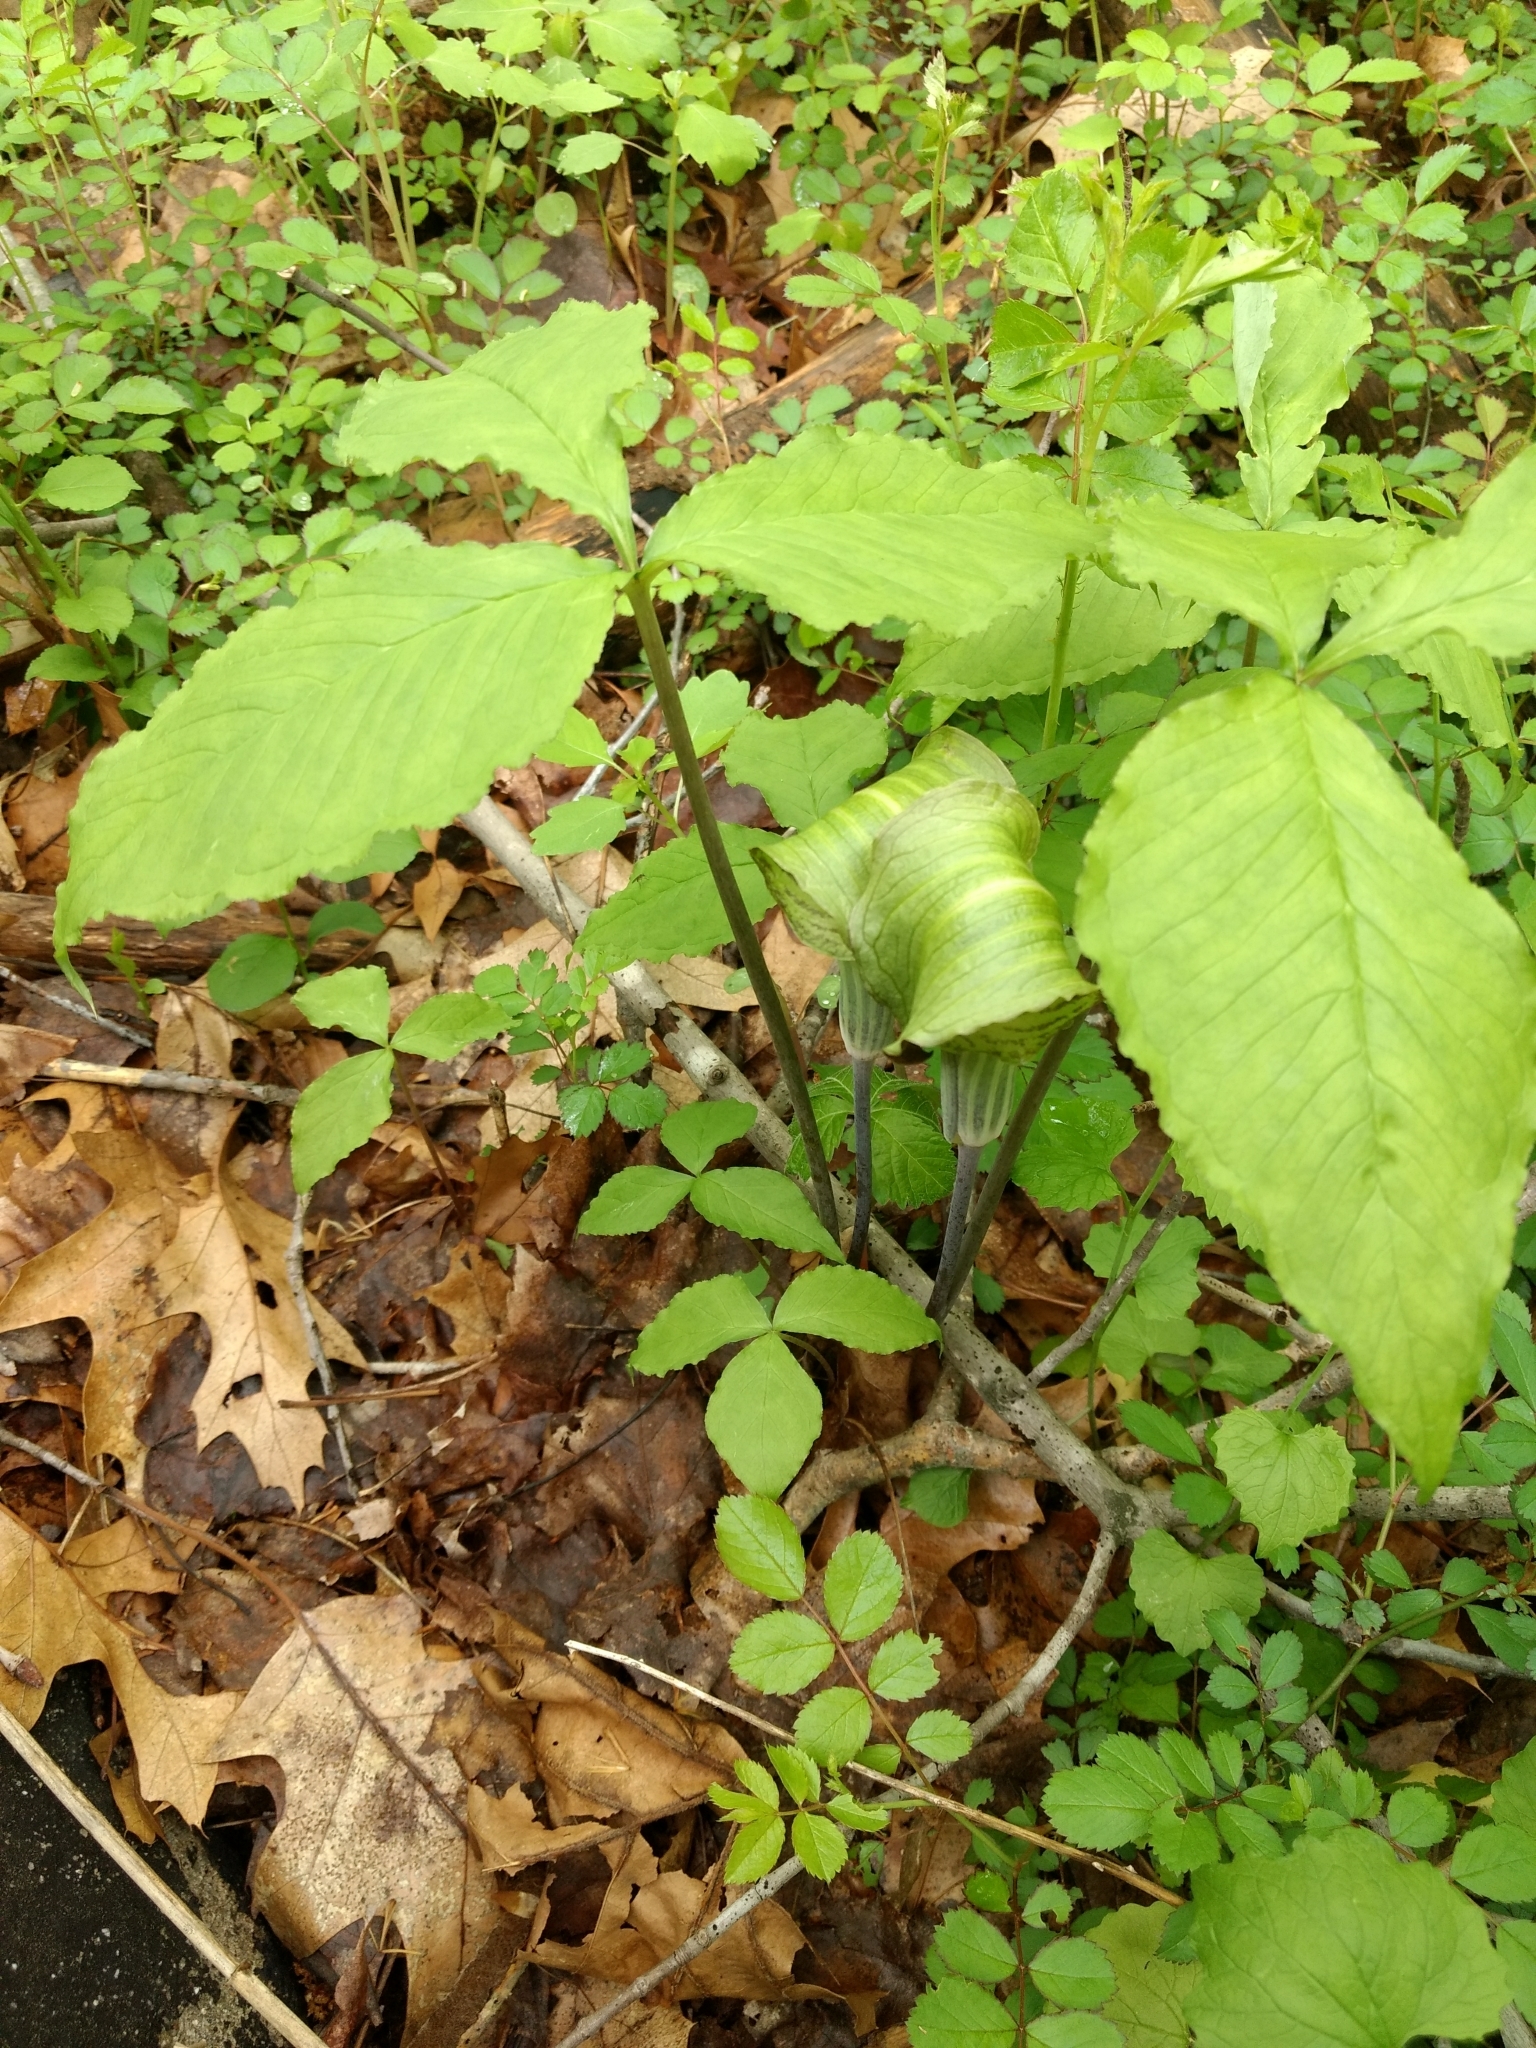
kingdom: Plantae
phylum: Tracheophyta
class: Liliopsida
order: Alismatales
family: Araceae
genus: Arisaema
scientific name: Arisaema triphyllum
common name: Jack-in-the-pulpit
